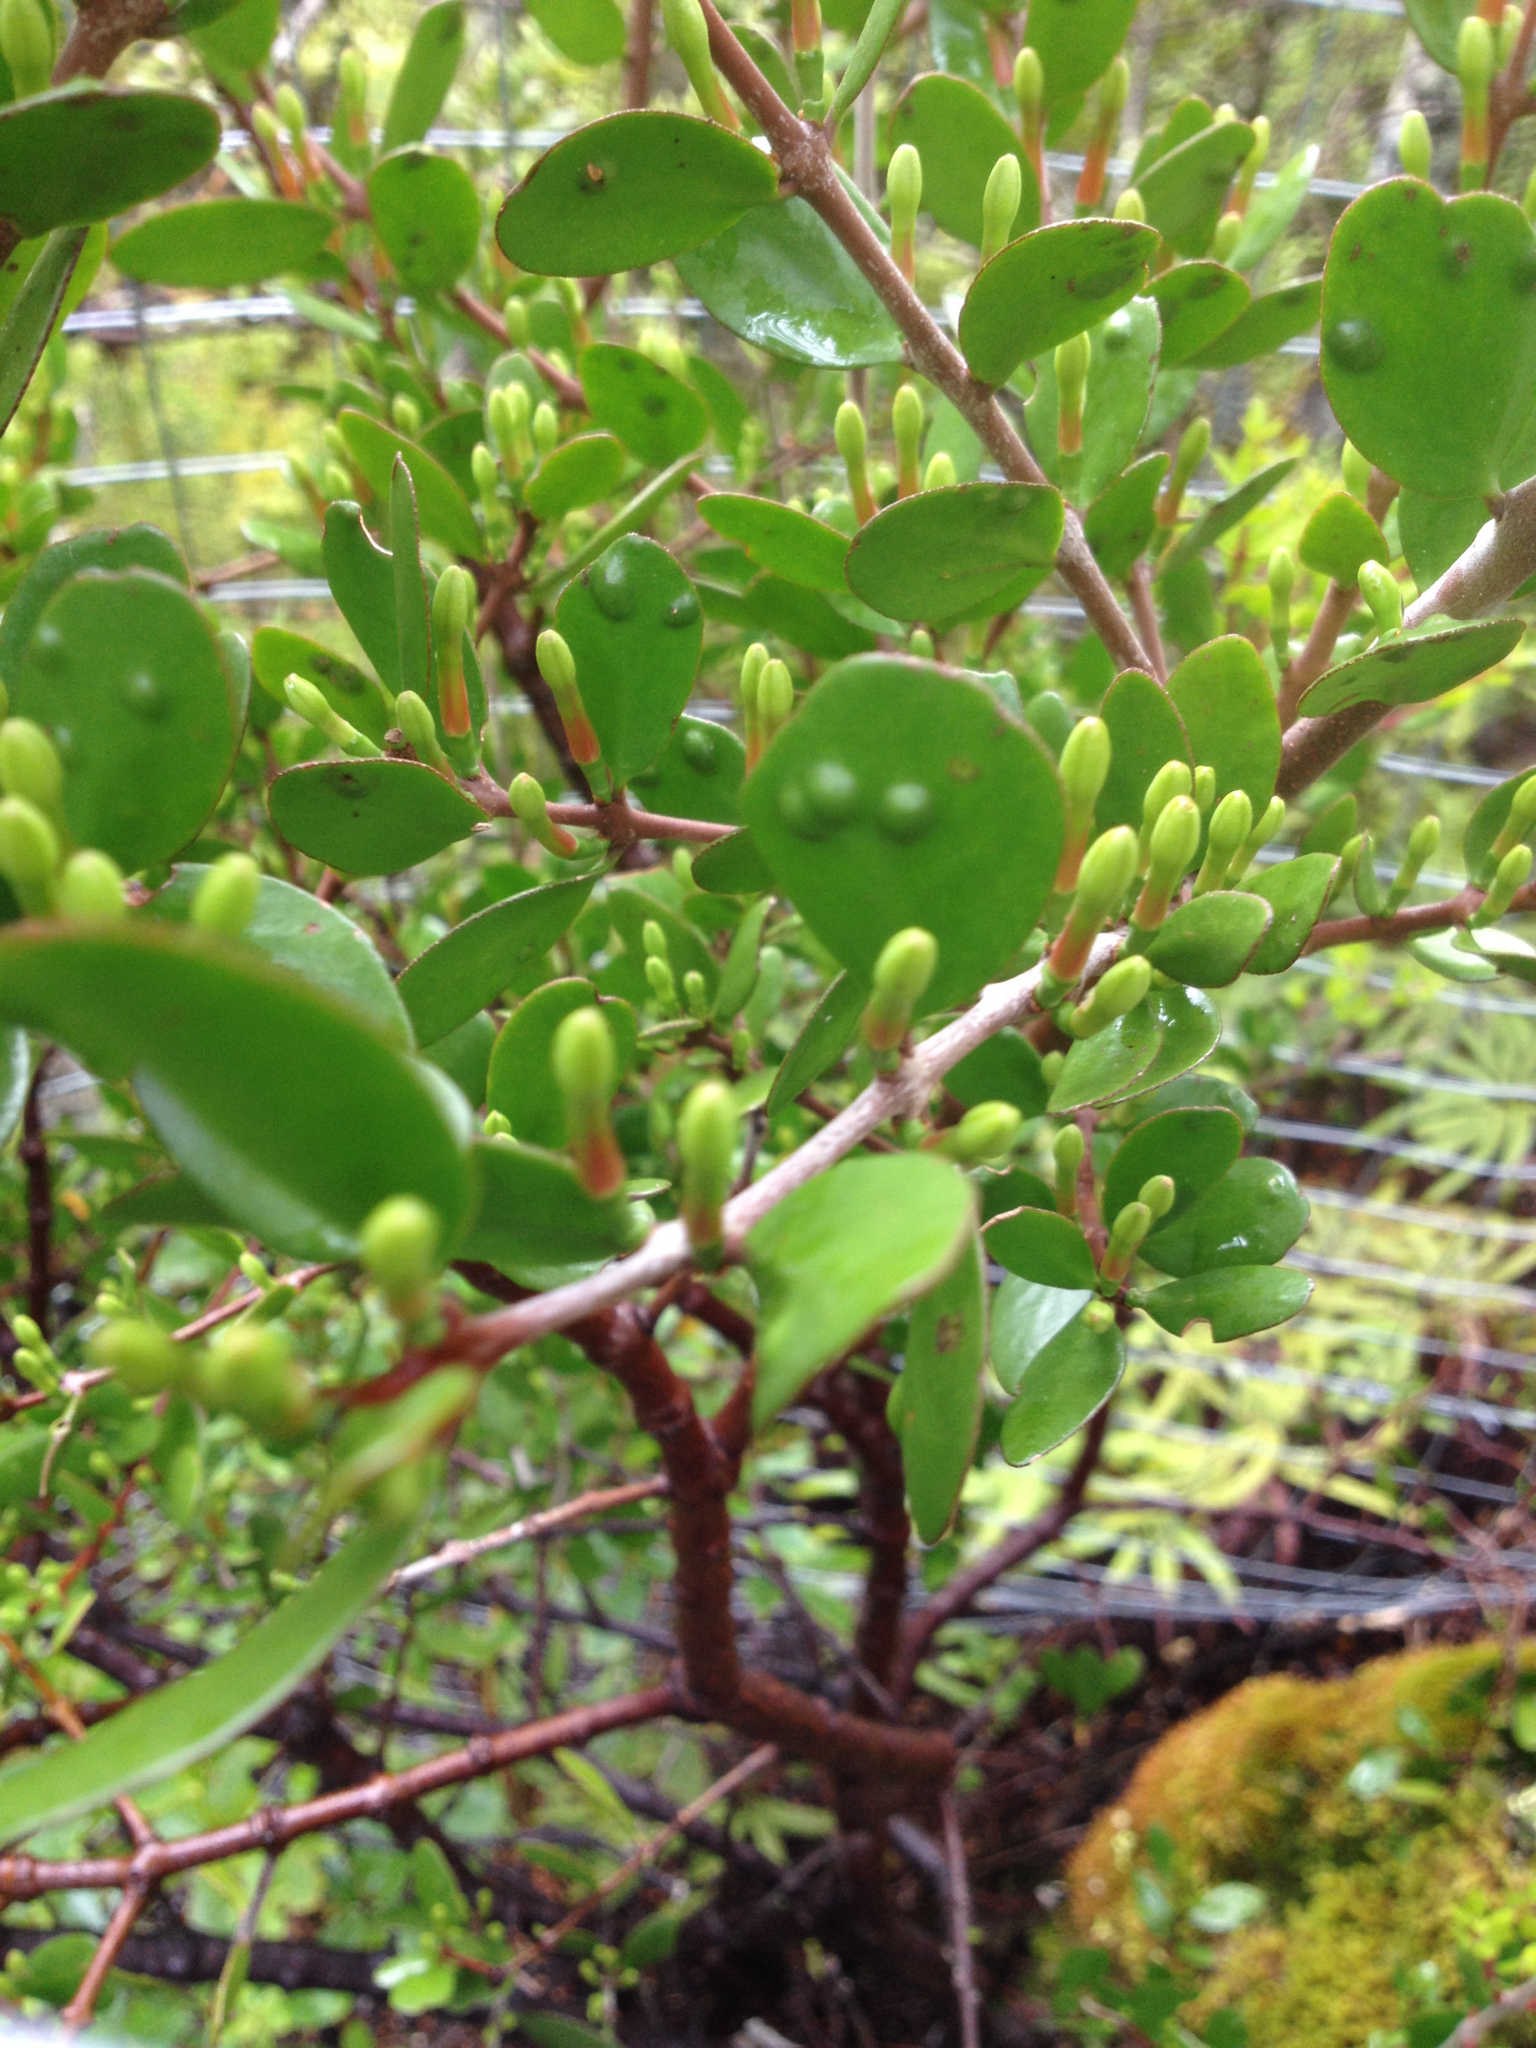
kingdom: Plantae
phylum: Tracheophyta
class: Magnoliopsida
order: Santalales
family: Loranthaceae
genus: Peraxilla
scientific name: Peraxilla tetrapetala
